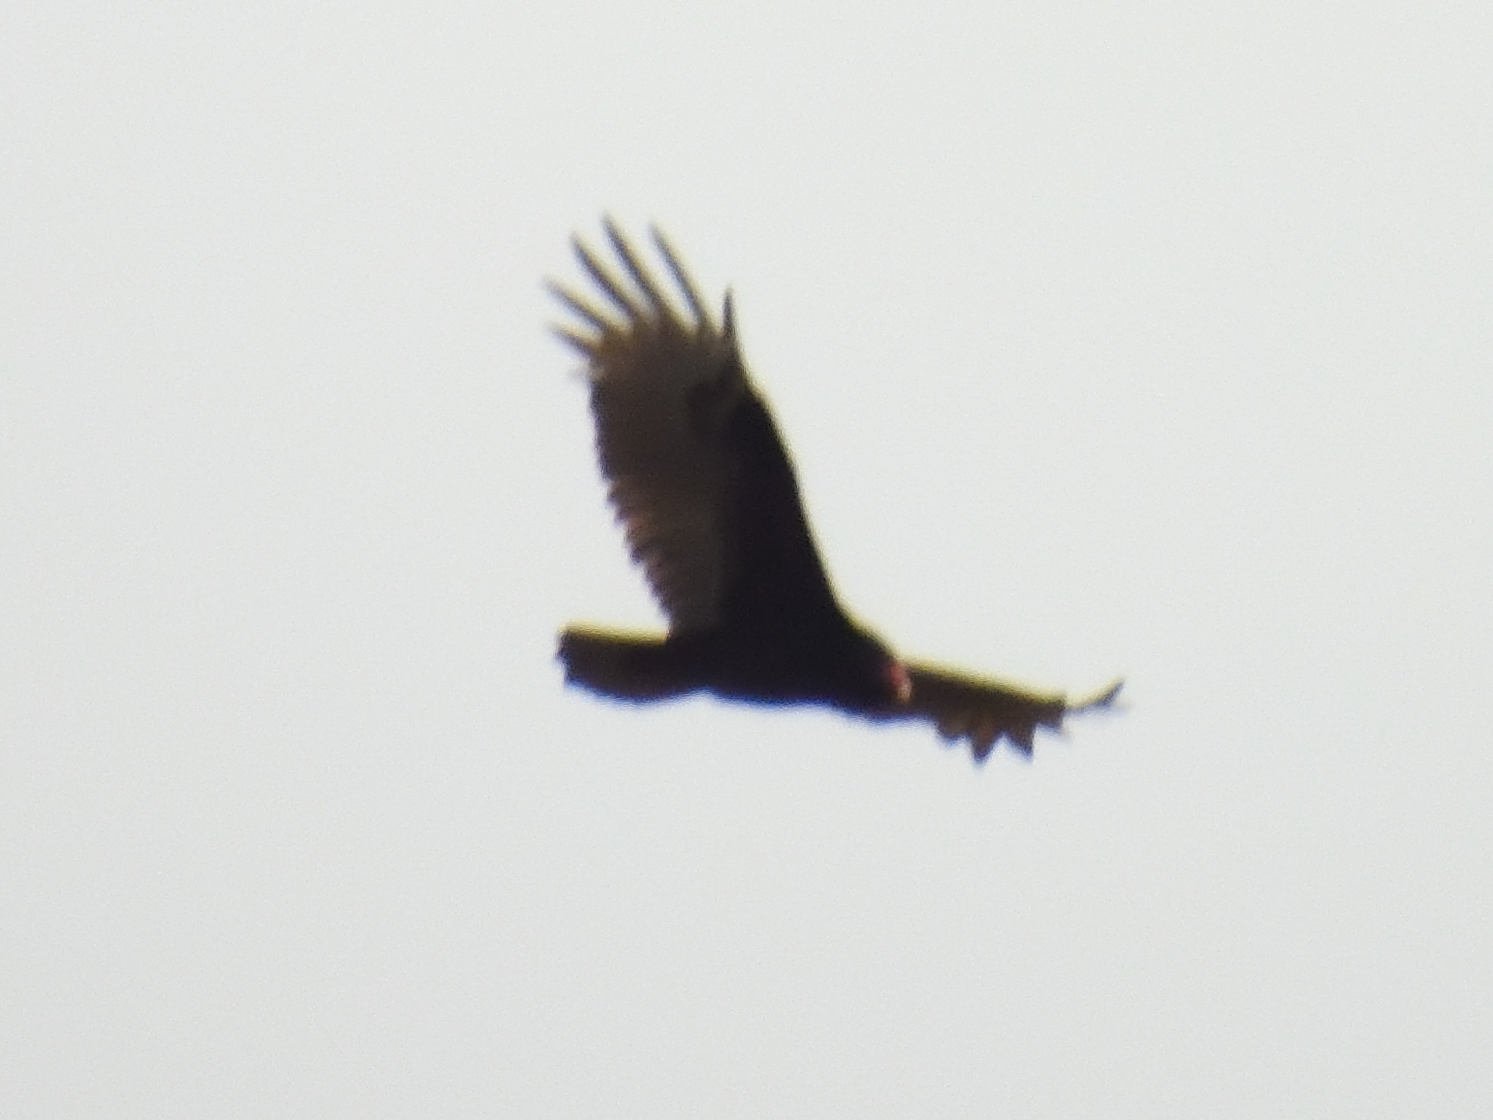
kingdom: Animalia
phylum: Chordata
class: Aves
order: Accipitriformes
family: Cathartidae
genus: Cathartes
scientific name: Cathartes aura
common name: Turkey vulture
